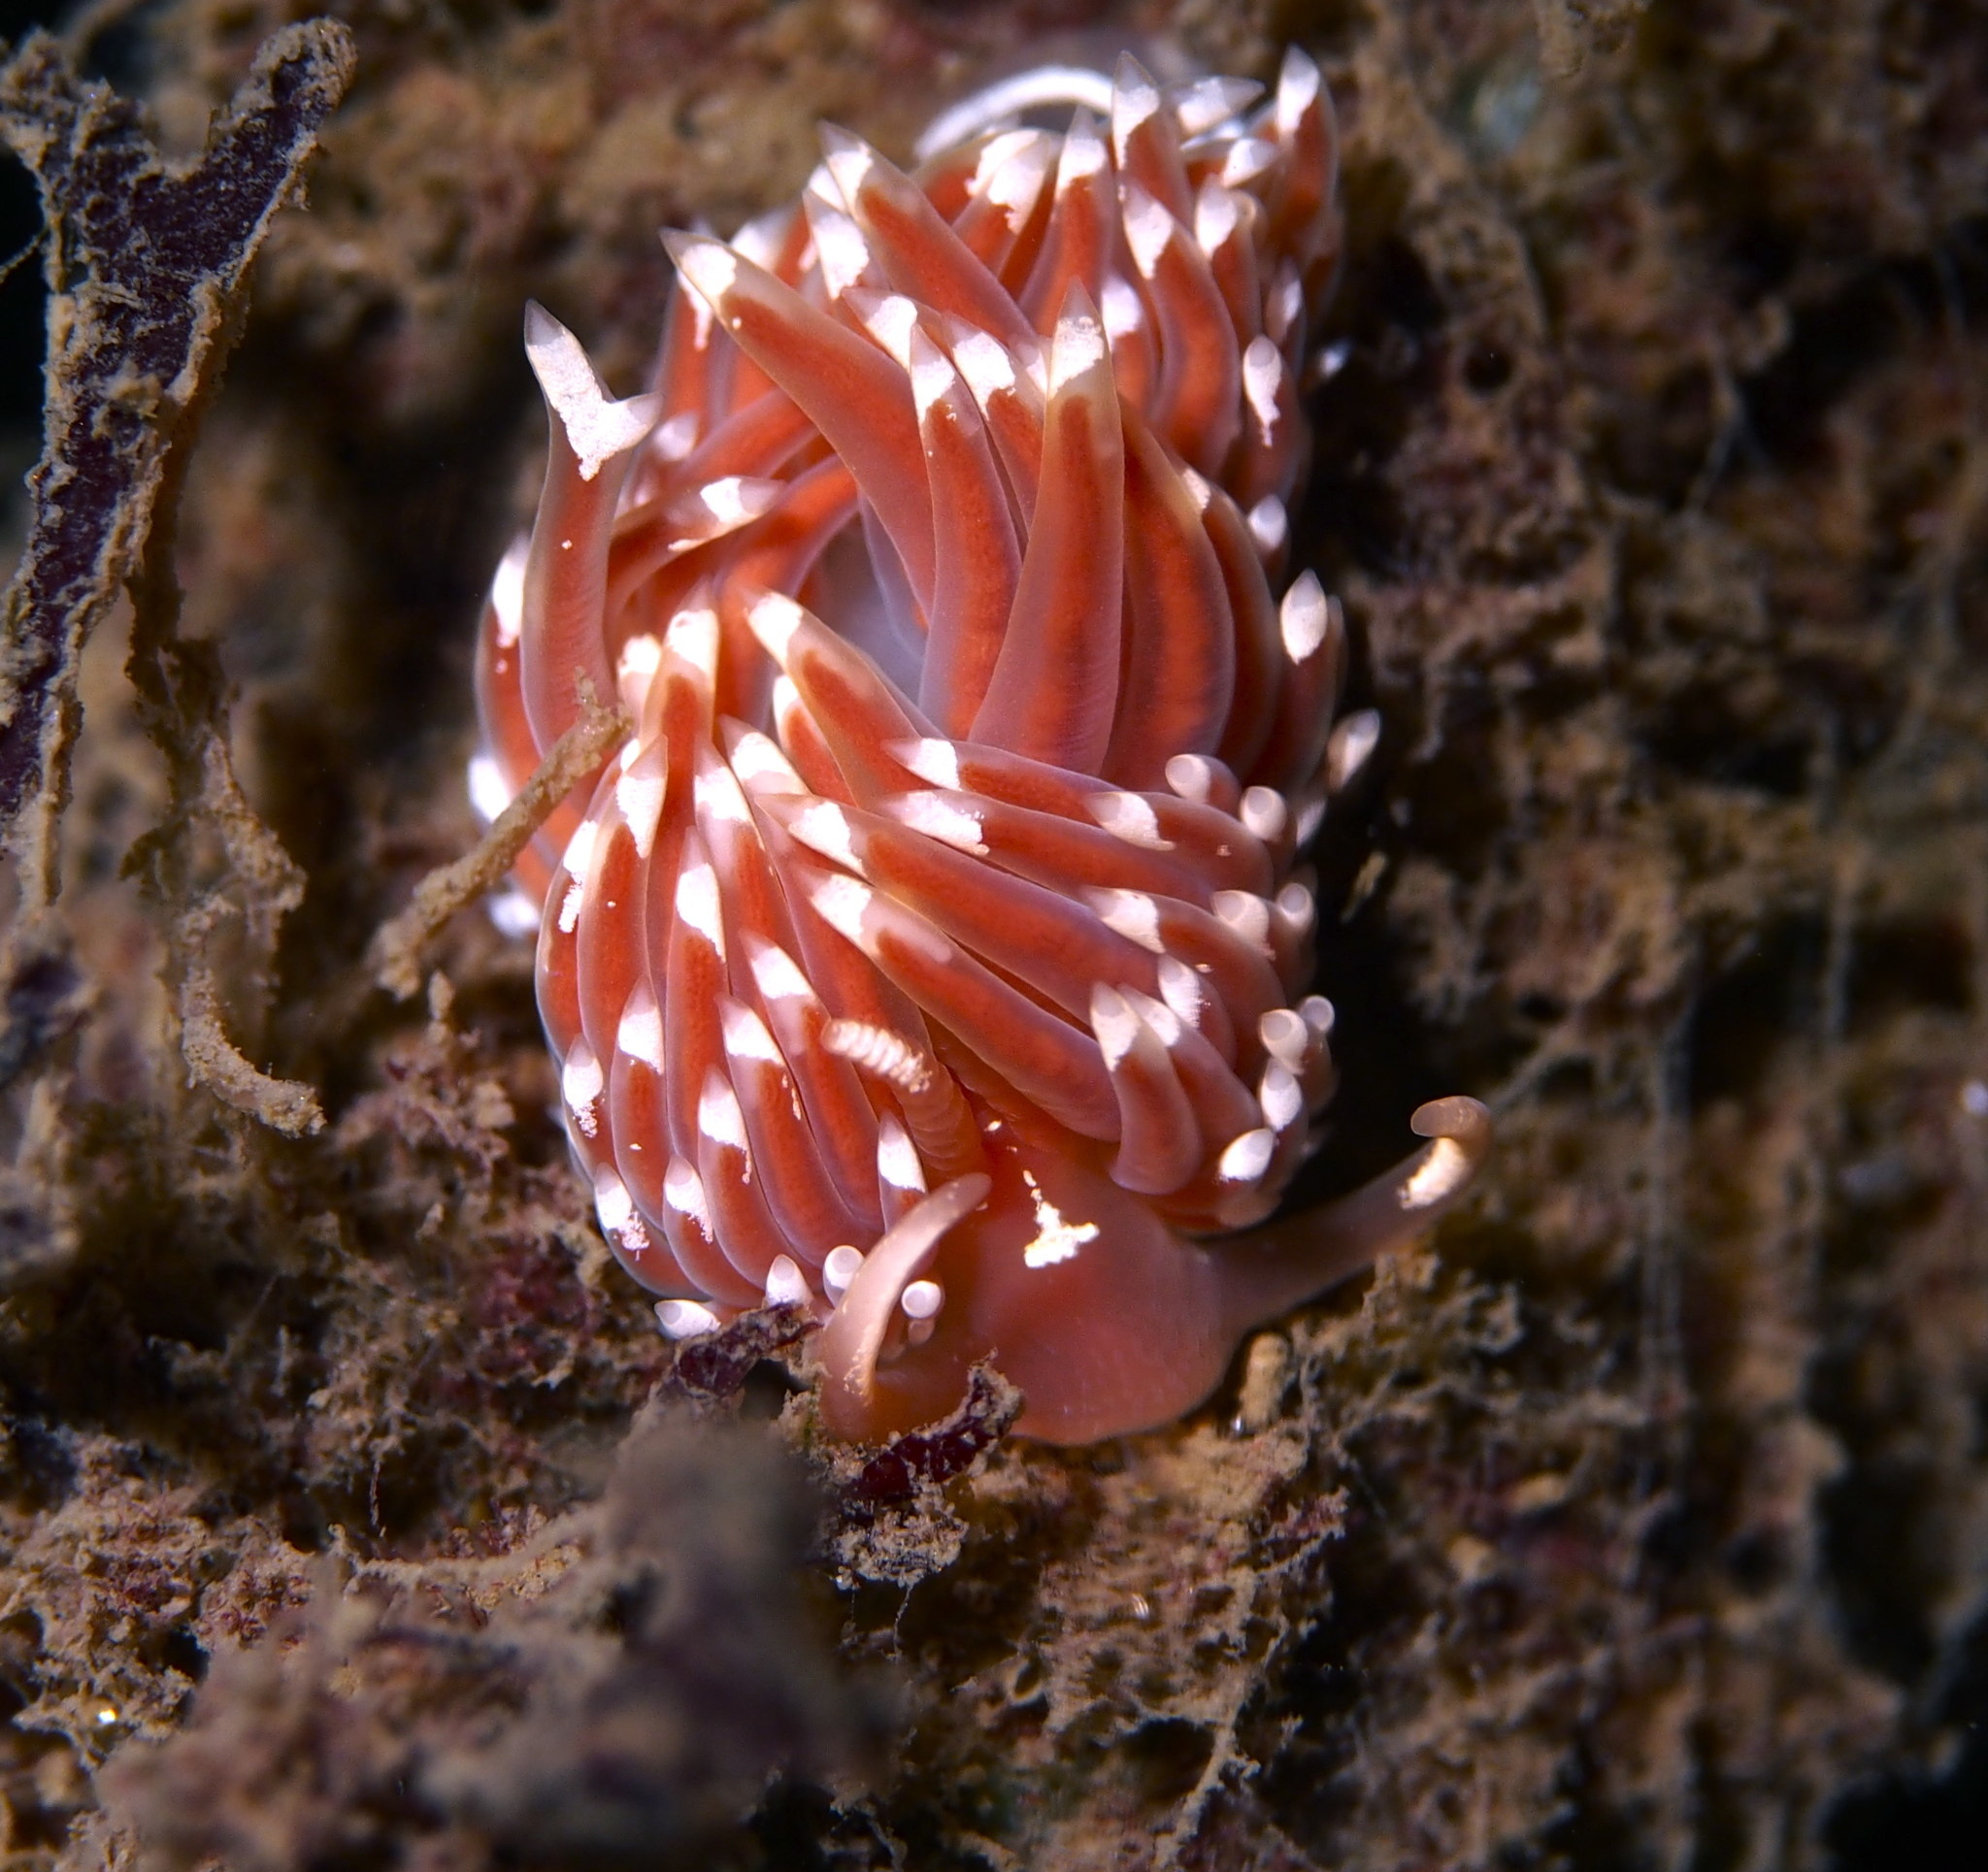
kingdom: Animalia
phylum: Mollusca
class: Gastropoda
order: Nudibranchia
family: Facelinidae
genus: Facelina
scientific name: Facelina bostoniensis
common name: Boston facelina
